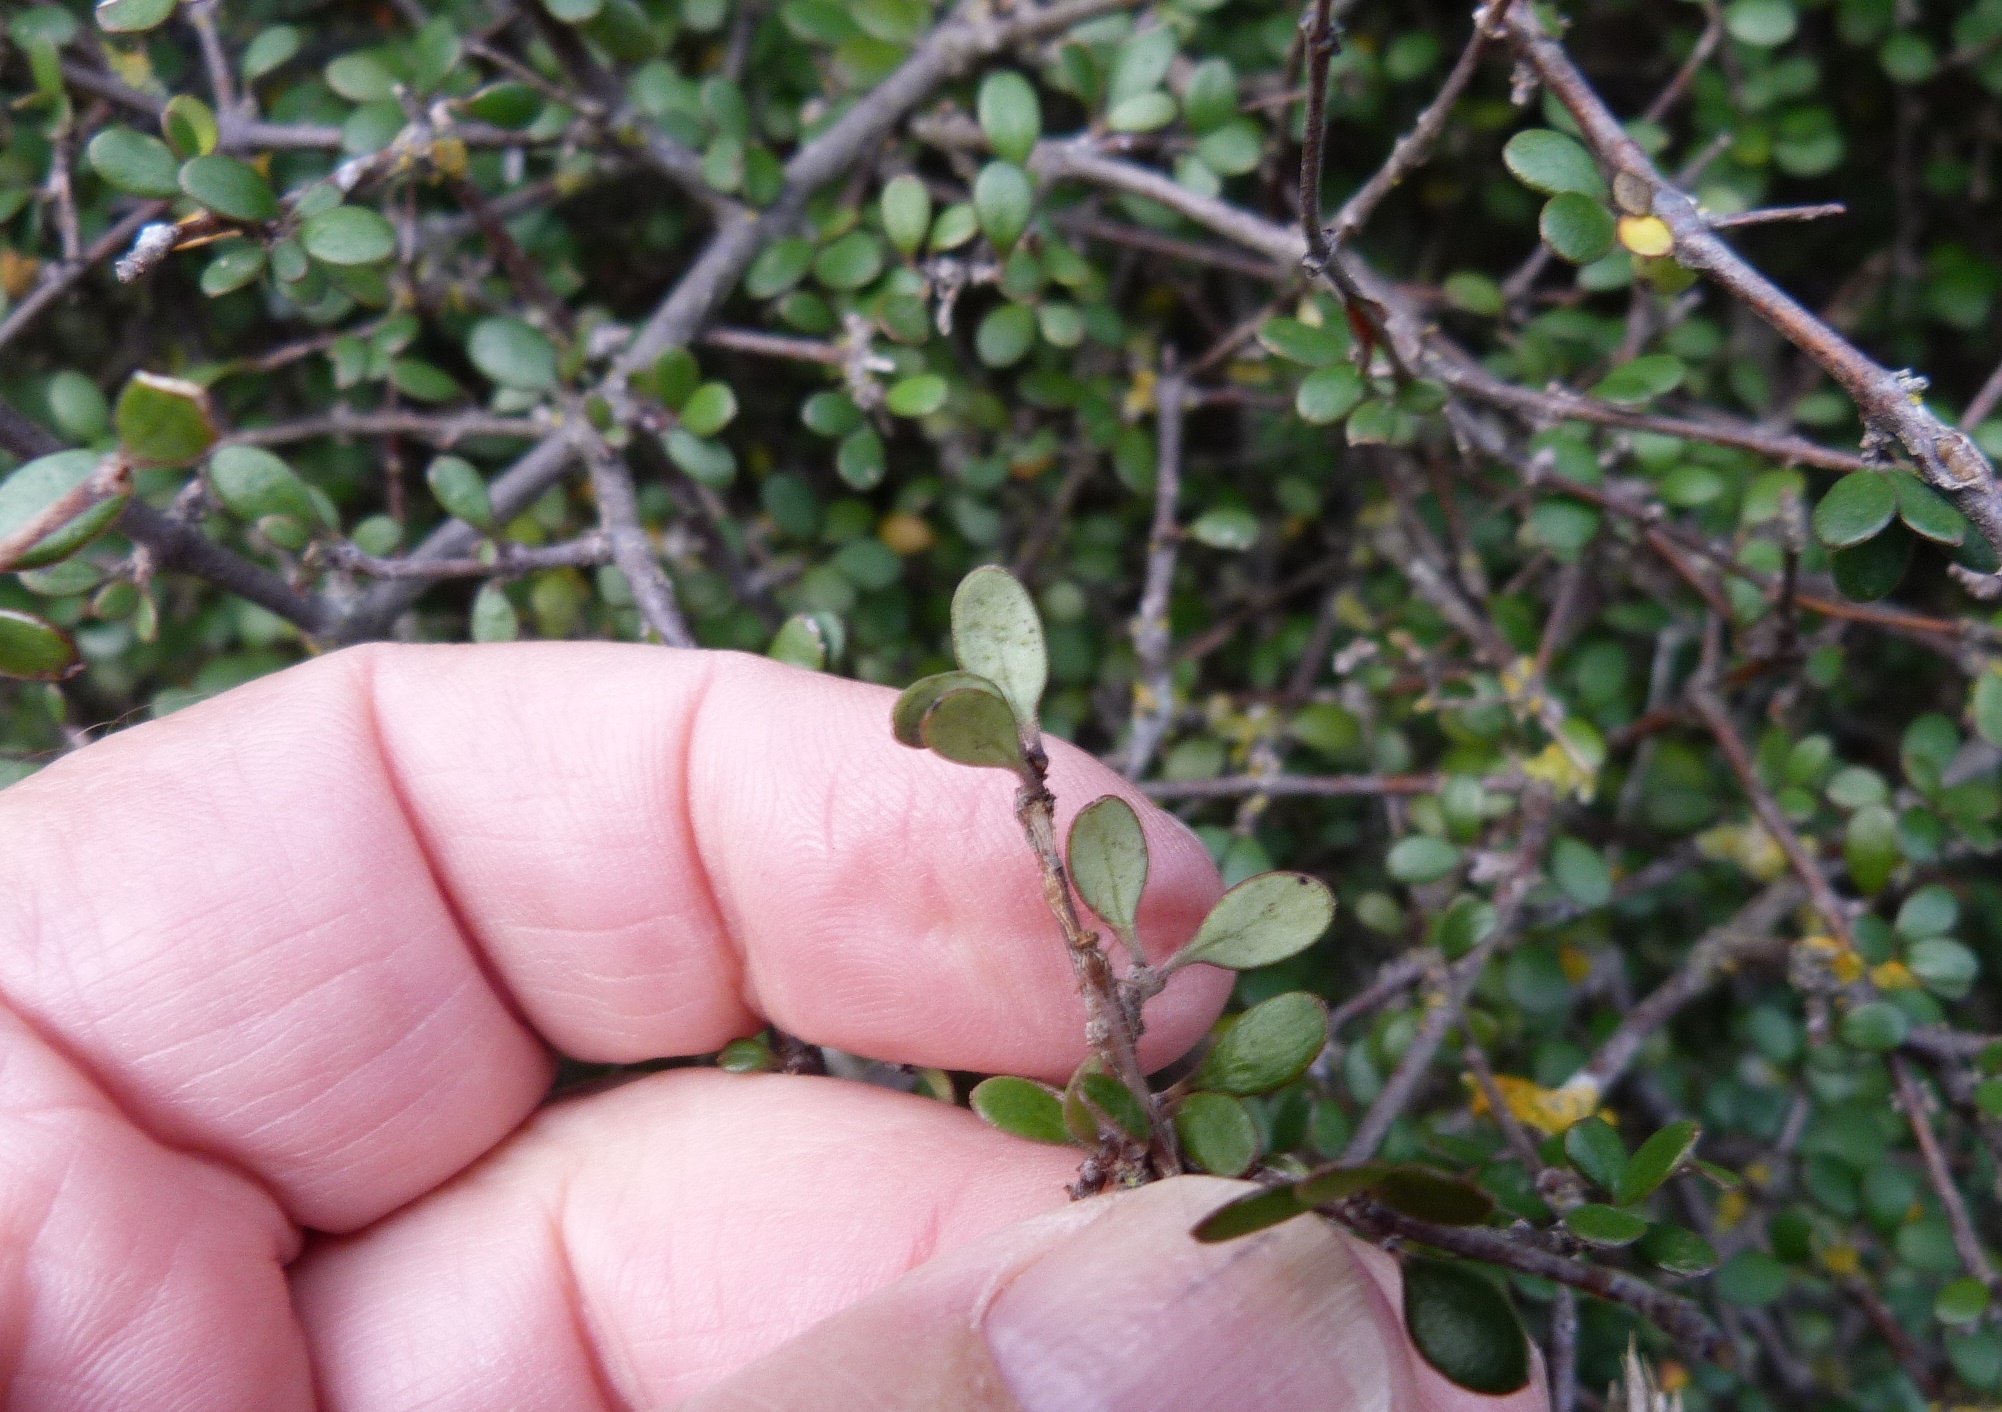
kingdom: Plantae
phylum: Tracheophyta
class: Magnoliopsida
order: Gentianales
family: Rubiaceae
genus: Coprosma
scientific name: Coprosma crassifolia
